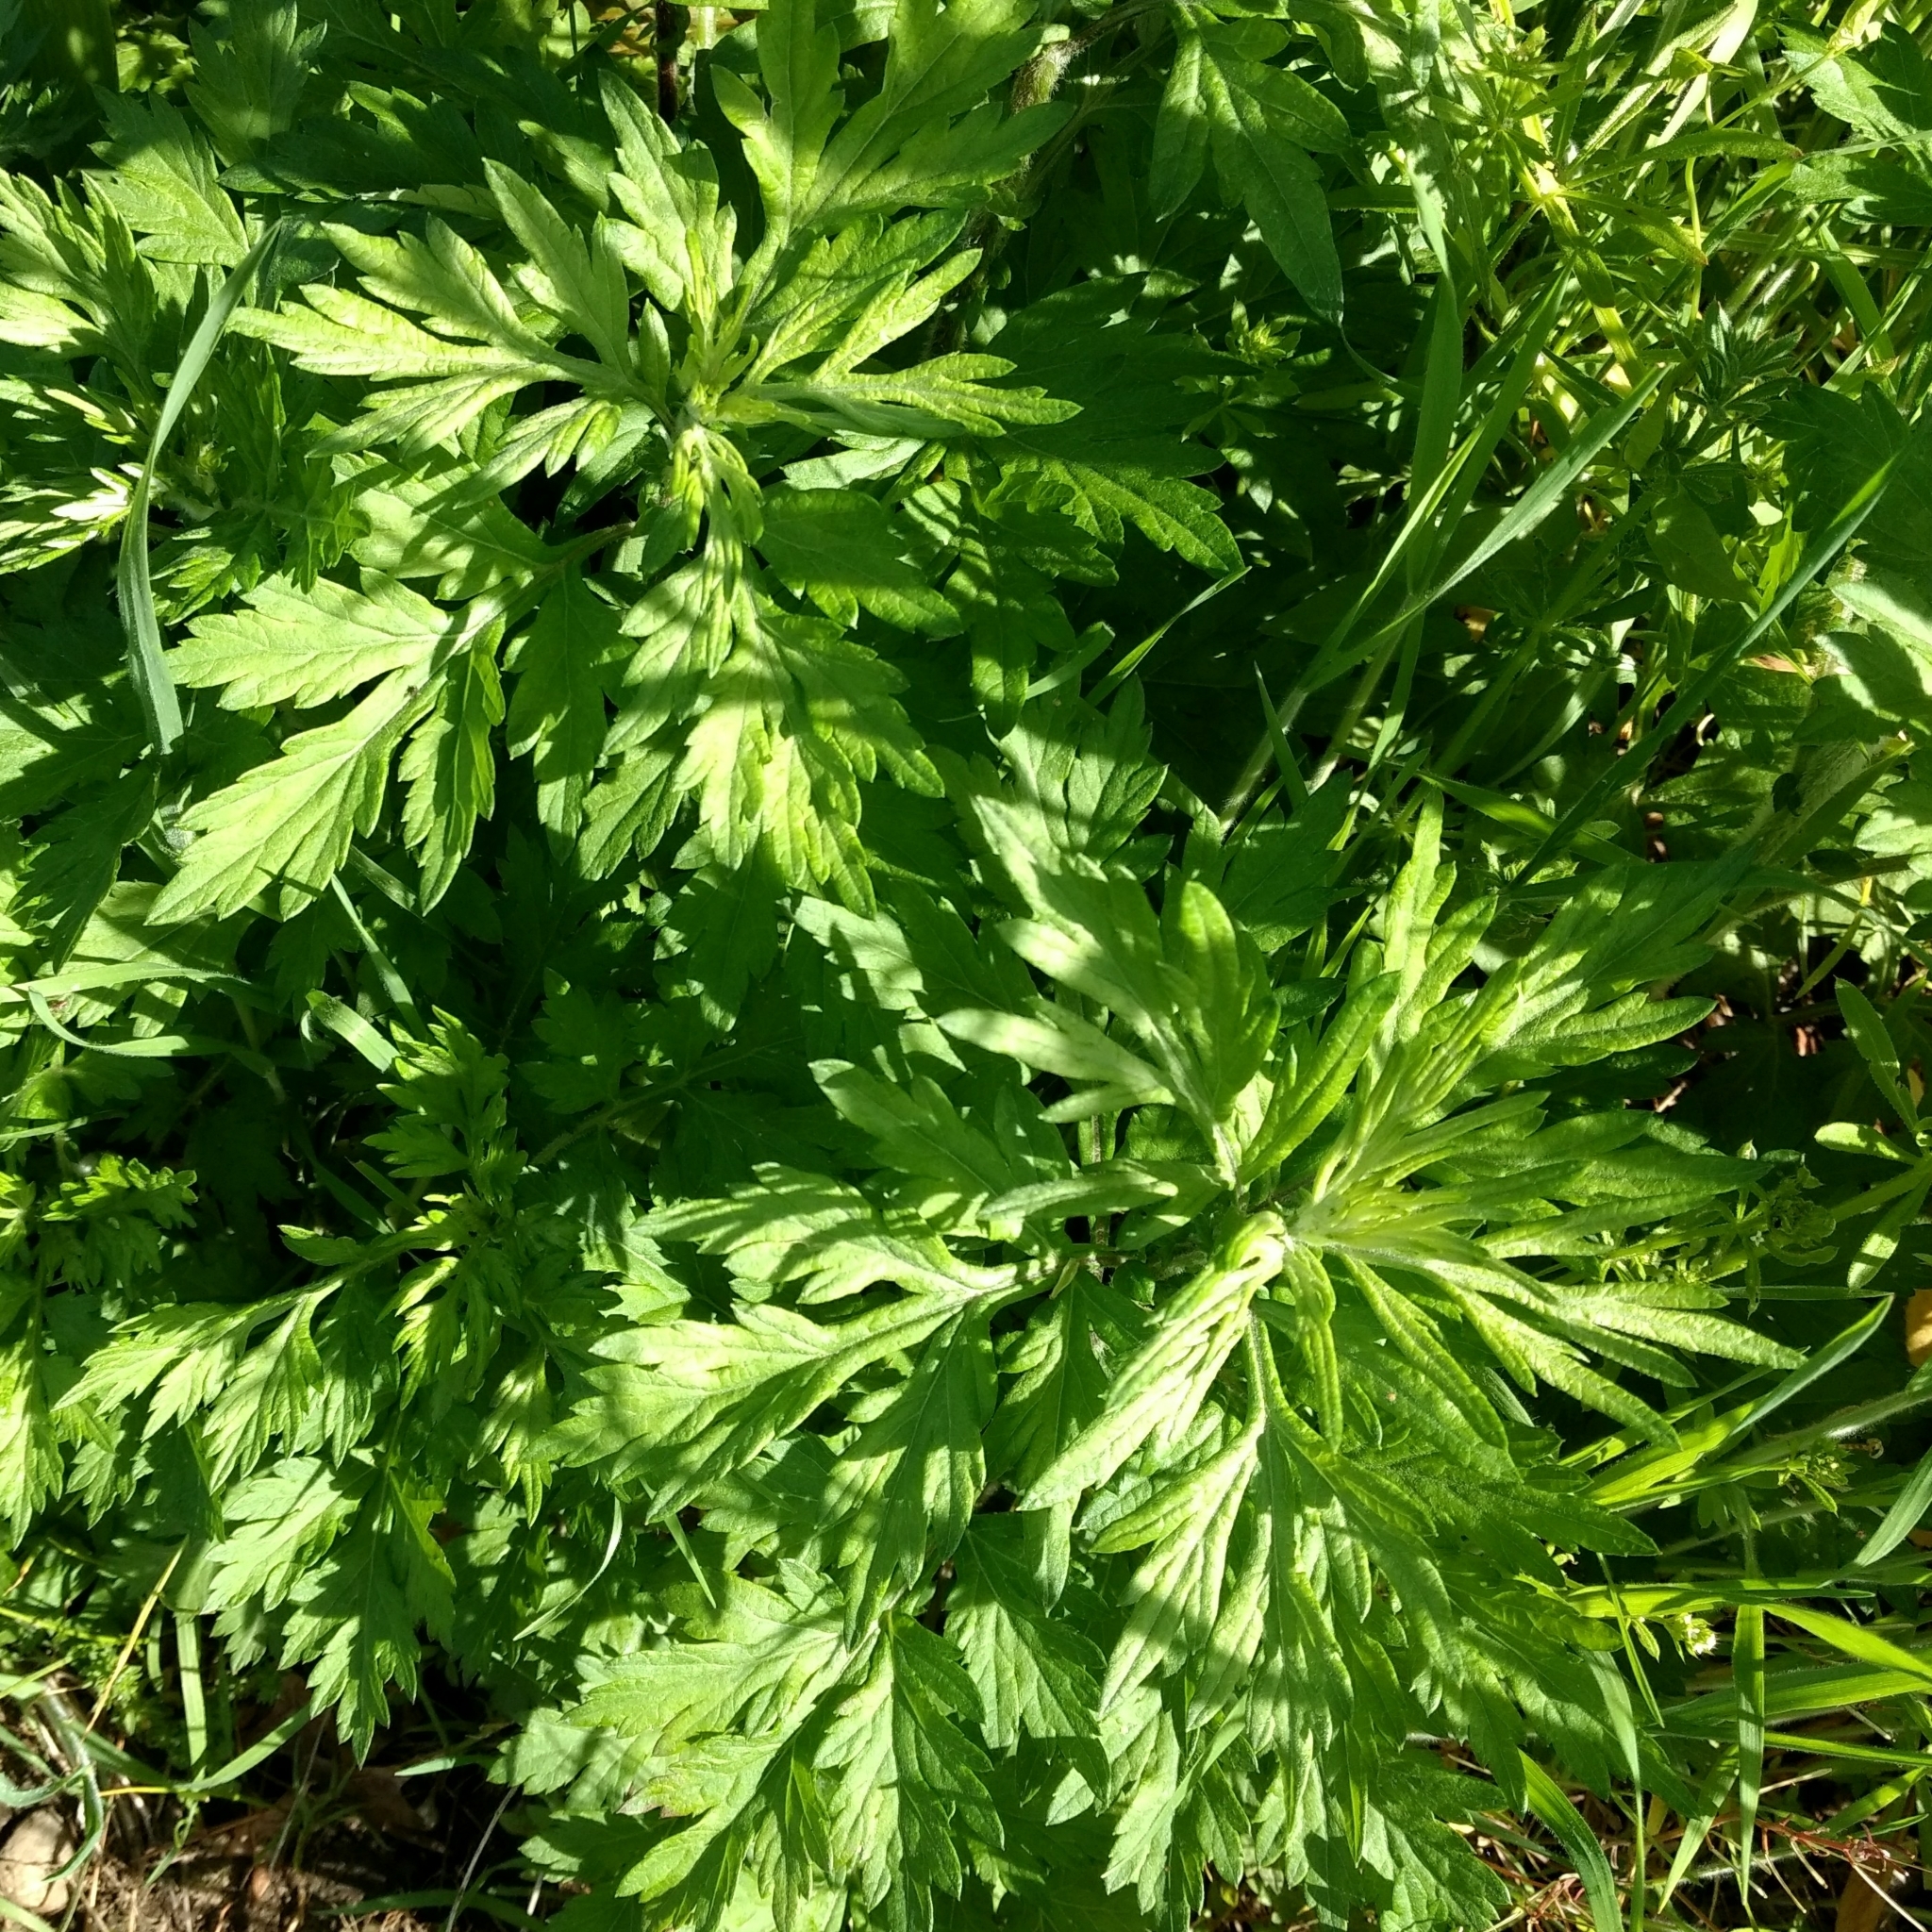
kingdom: Plantae
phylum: Tracheophyta
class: Magnoliopsida
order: Asterales
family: Asteraceae
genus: Artemisia
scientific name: Artemisia vulgaris
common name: Mugwort
